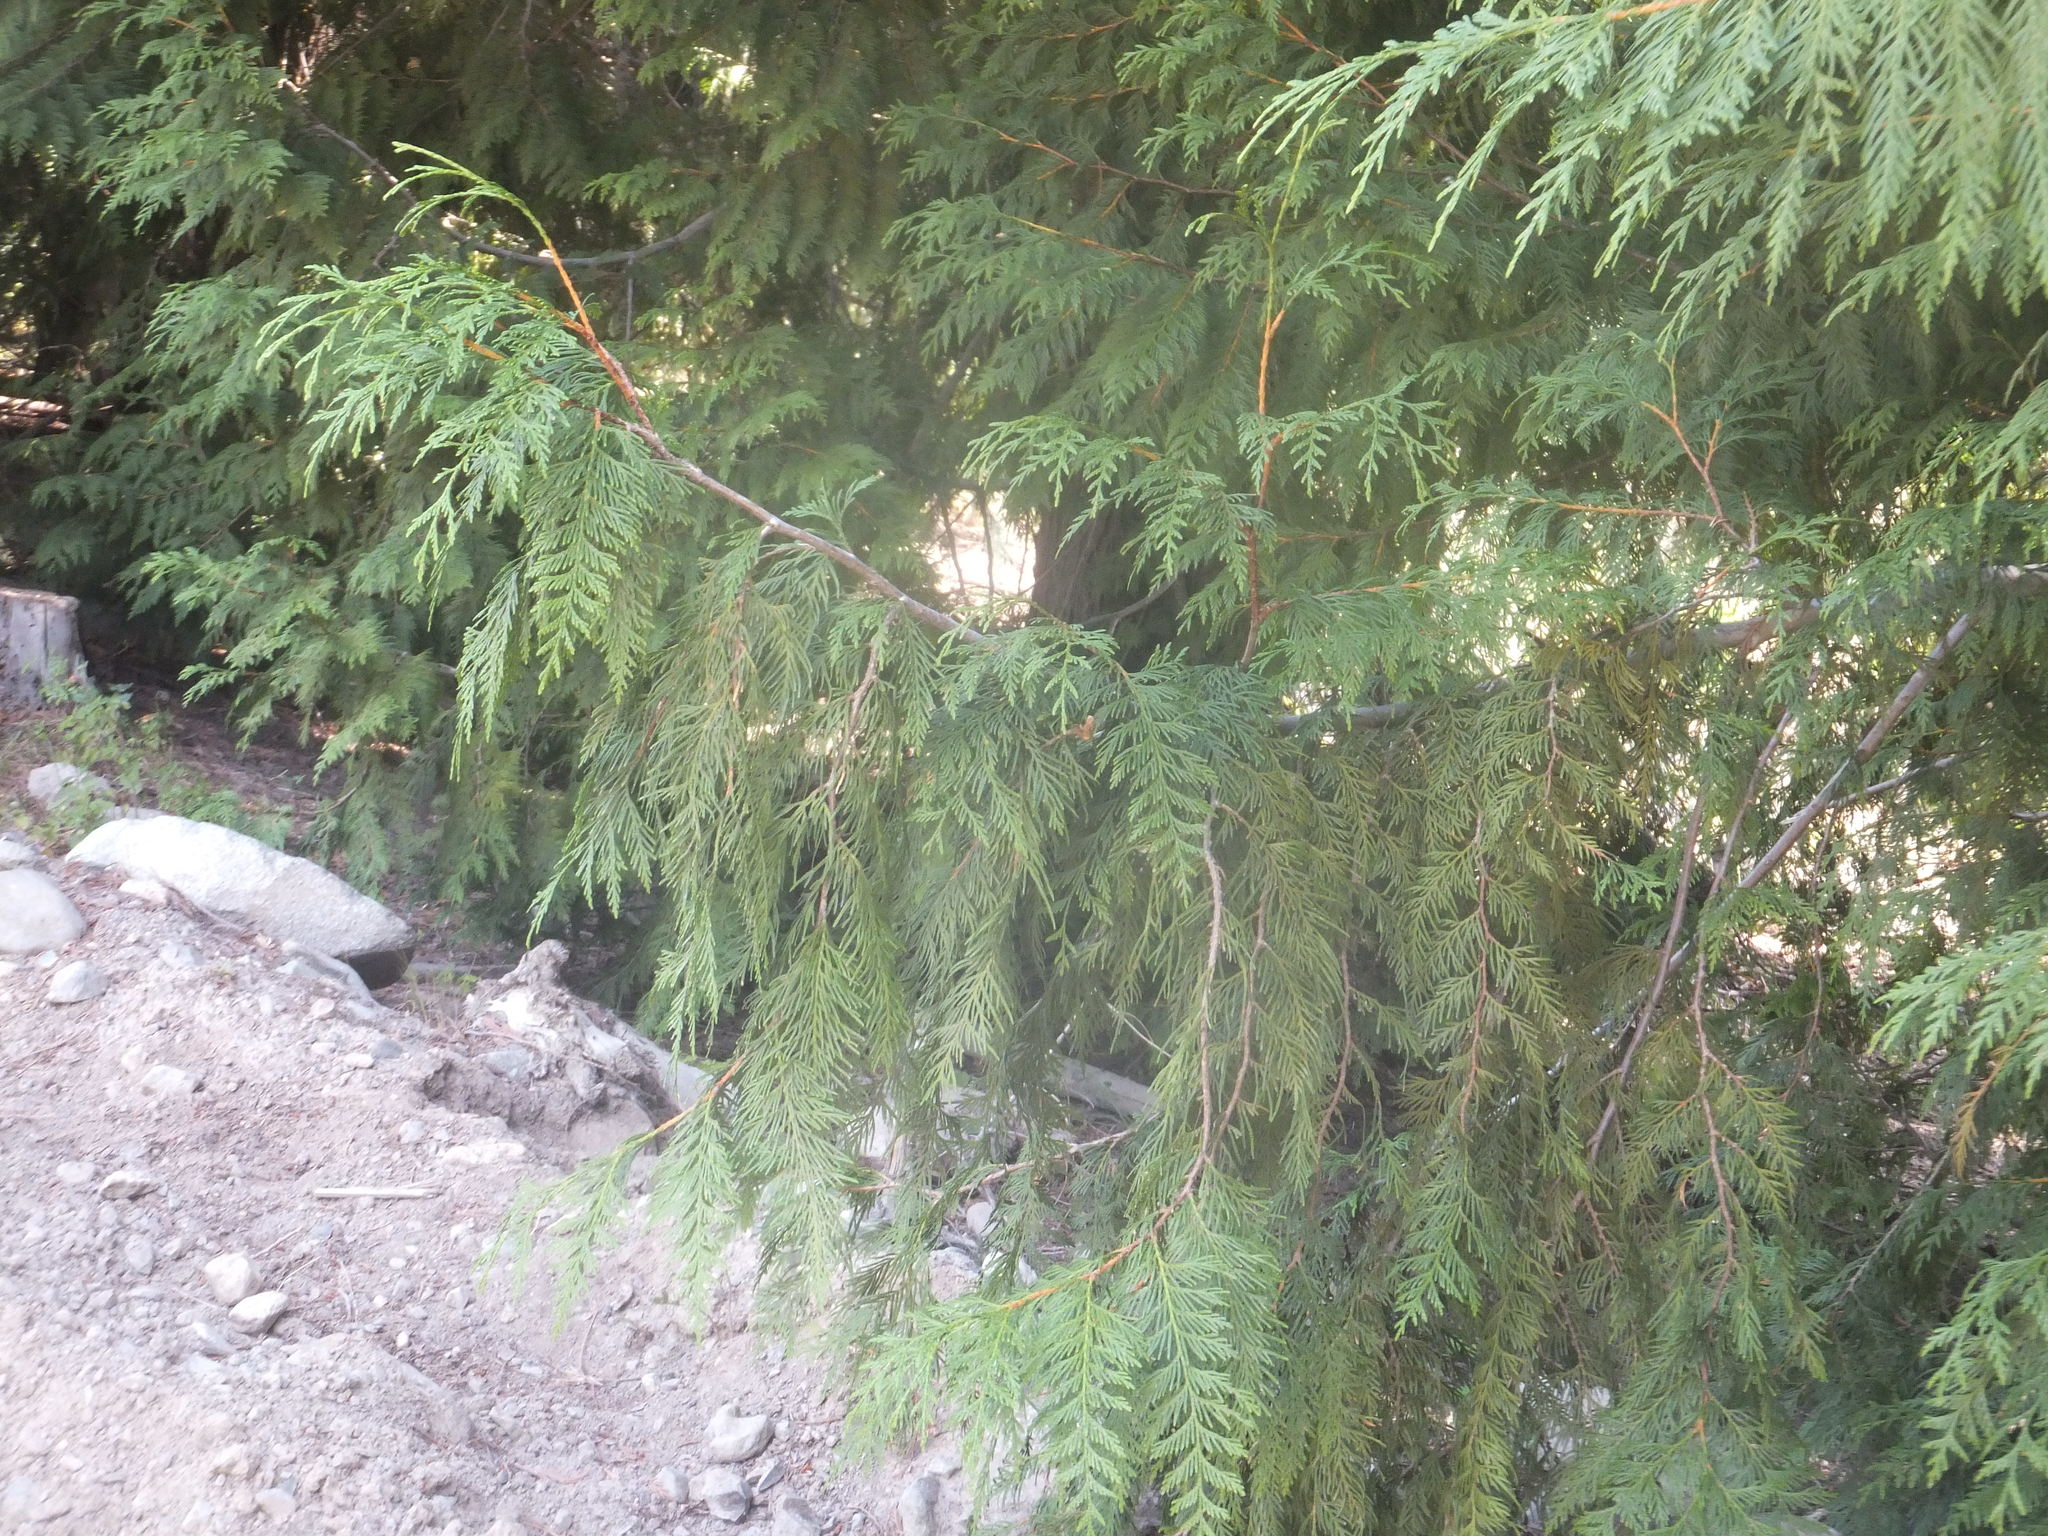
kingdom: Plantae
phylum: Tracheophyta
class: Pinopsida
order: Pinales
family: Cupressaceae
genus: Thuja
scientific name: Thuja plicata
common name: Western red-cedar
